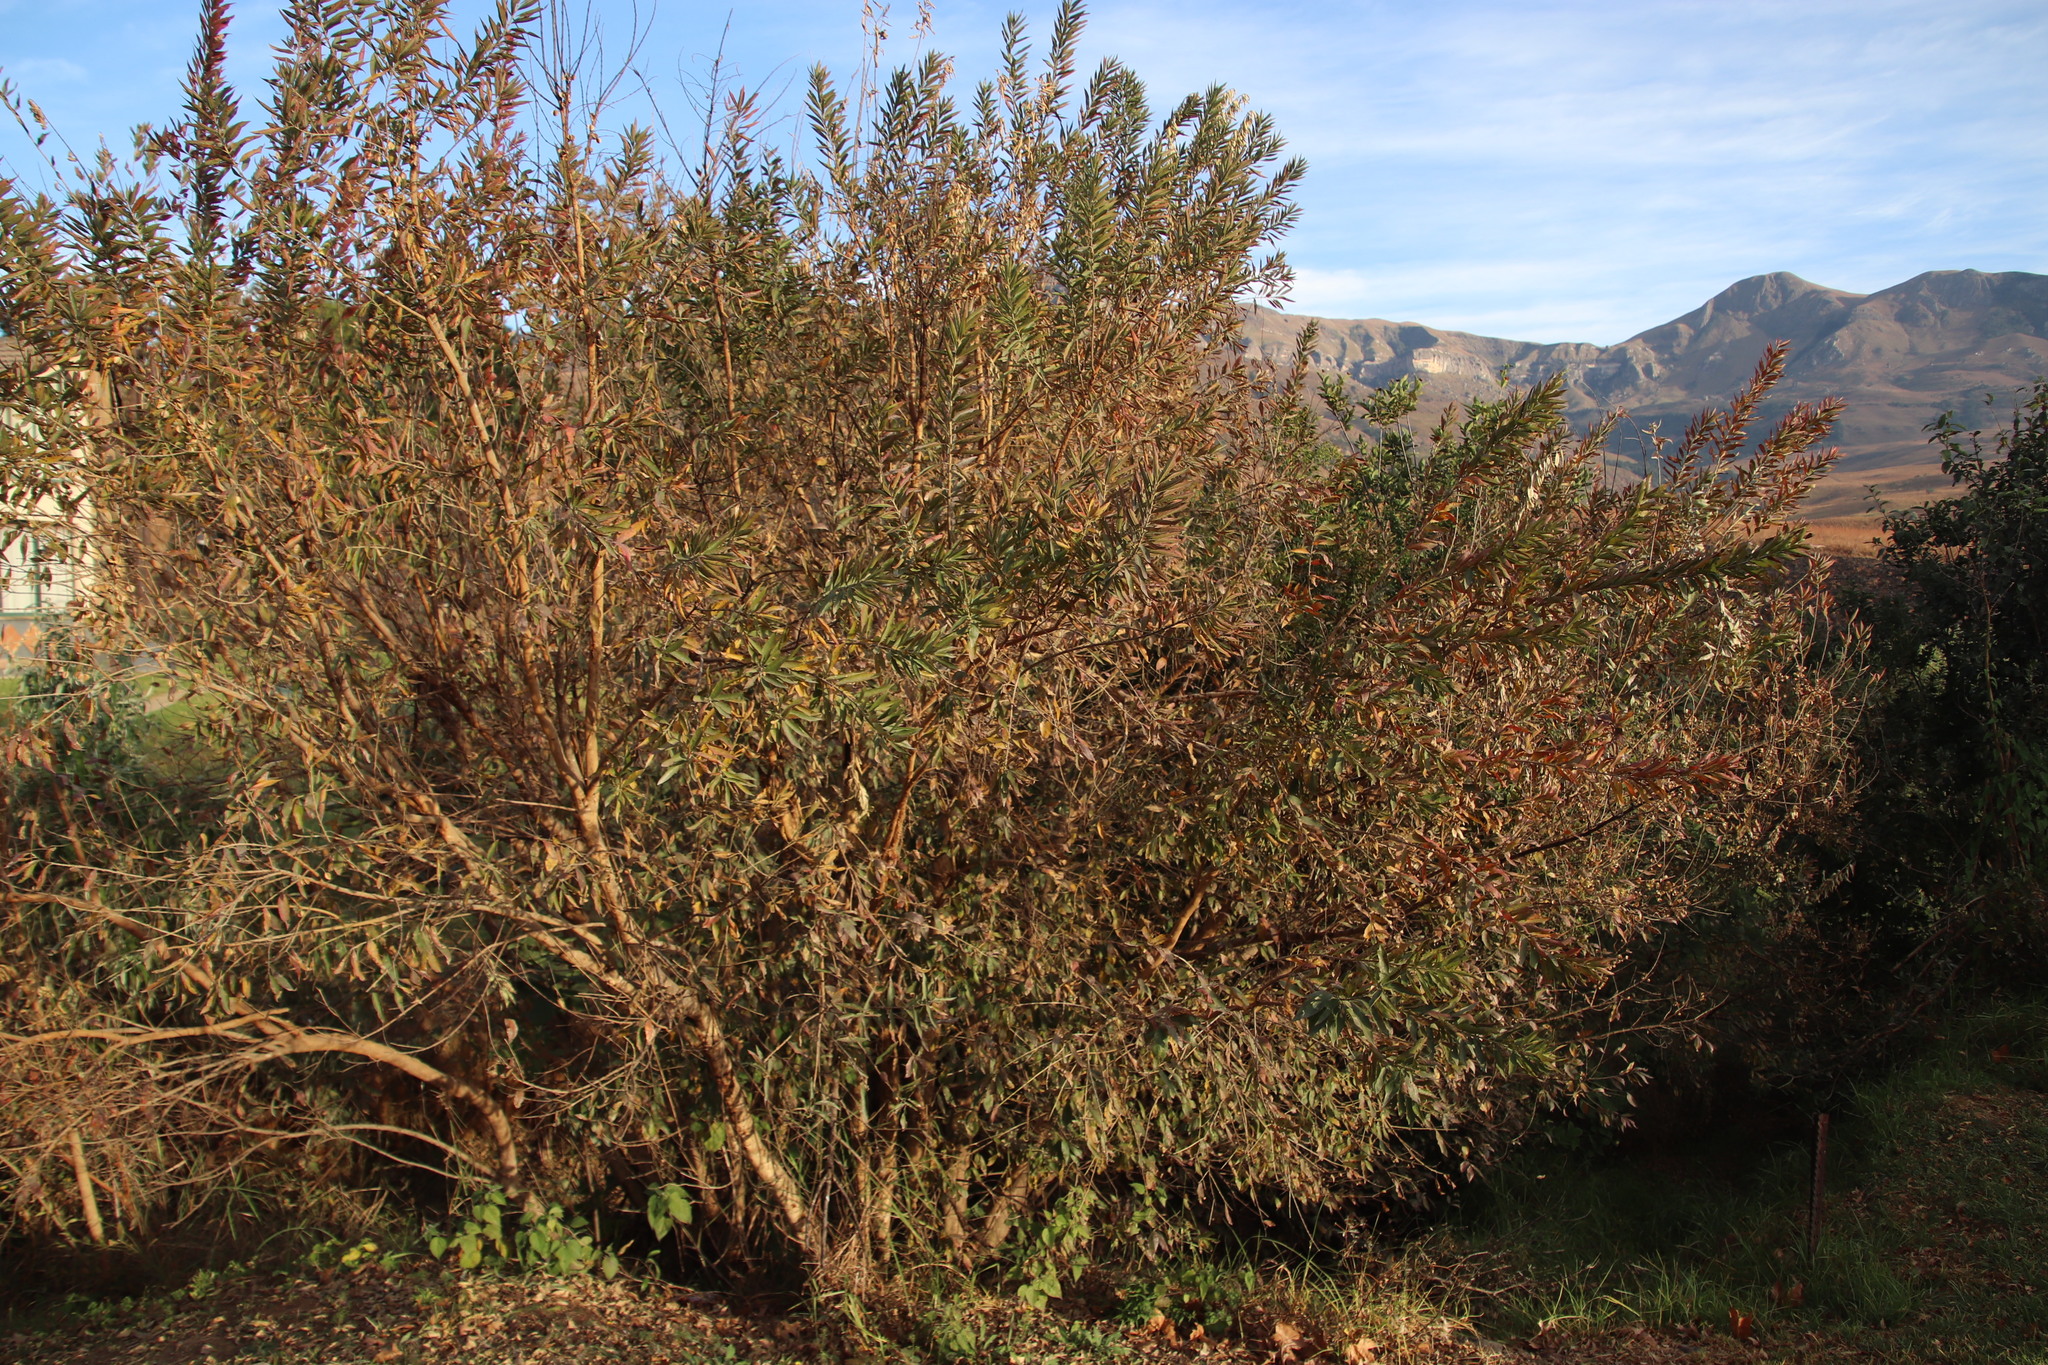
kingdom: Plantae
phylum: Tracheophyta
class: Magnoliopsida
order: Myrtales
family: Combretaceae
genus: Combretum
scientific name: Combretum erythrophyllum
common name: Bush-willow
